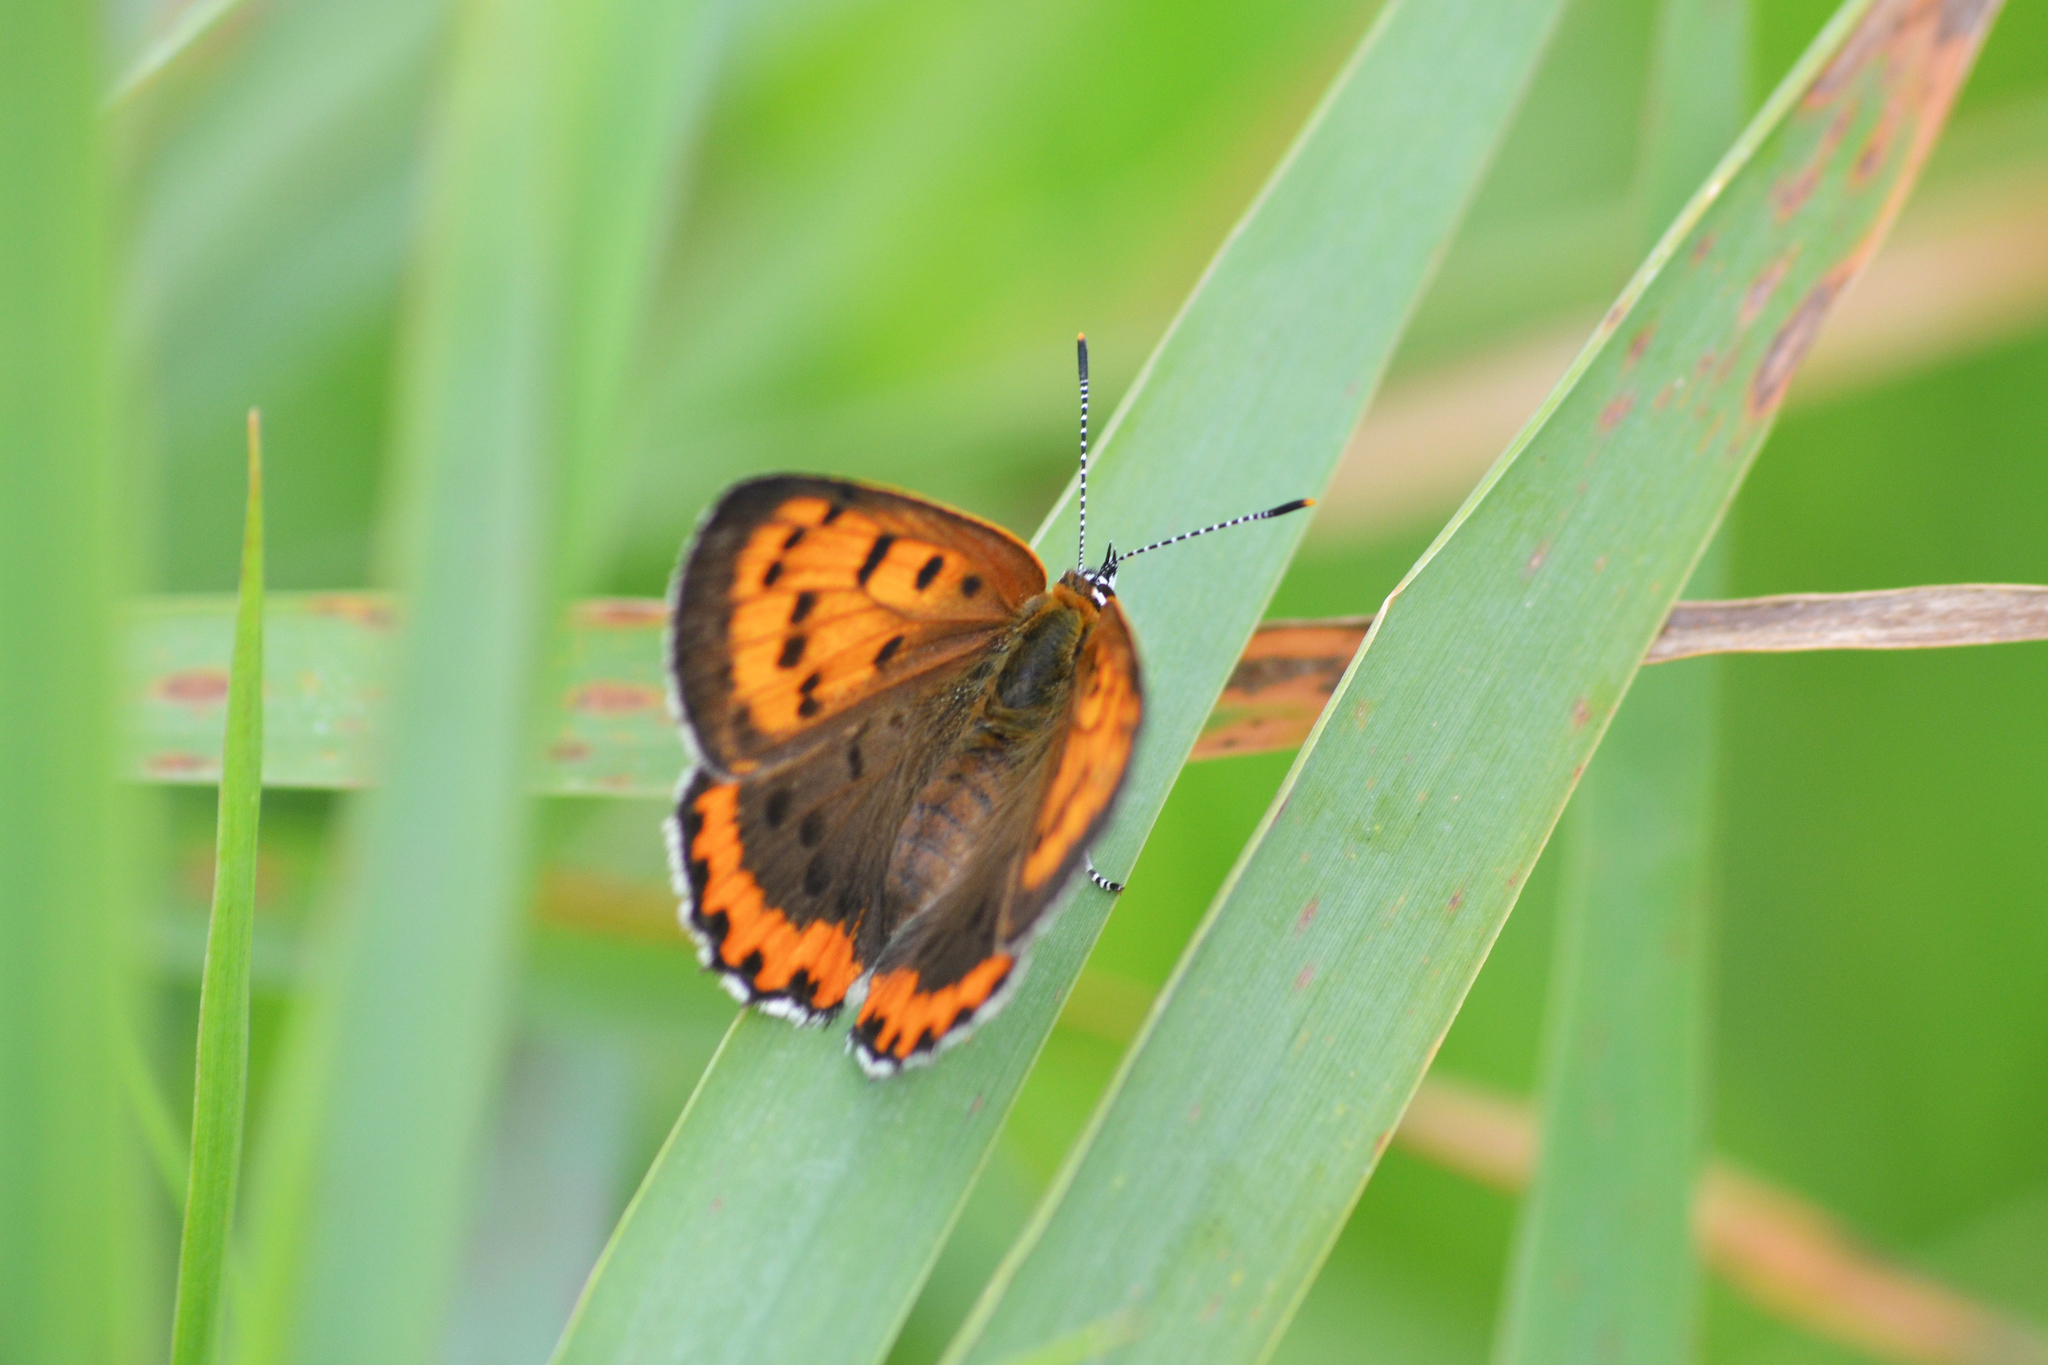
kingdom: Animalia
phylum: Arthropoda
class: Insecta
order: Lepidoptera
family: Lycaenidae
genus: Tharsalea
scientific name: Tharsalea hyllus
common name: Bronze copper
